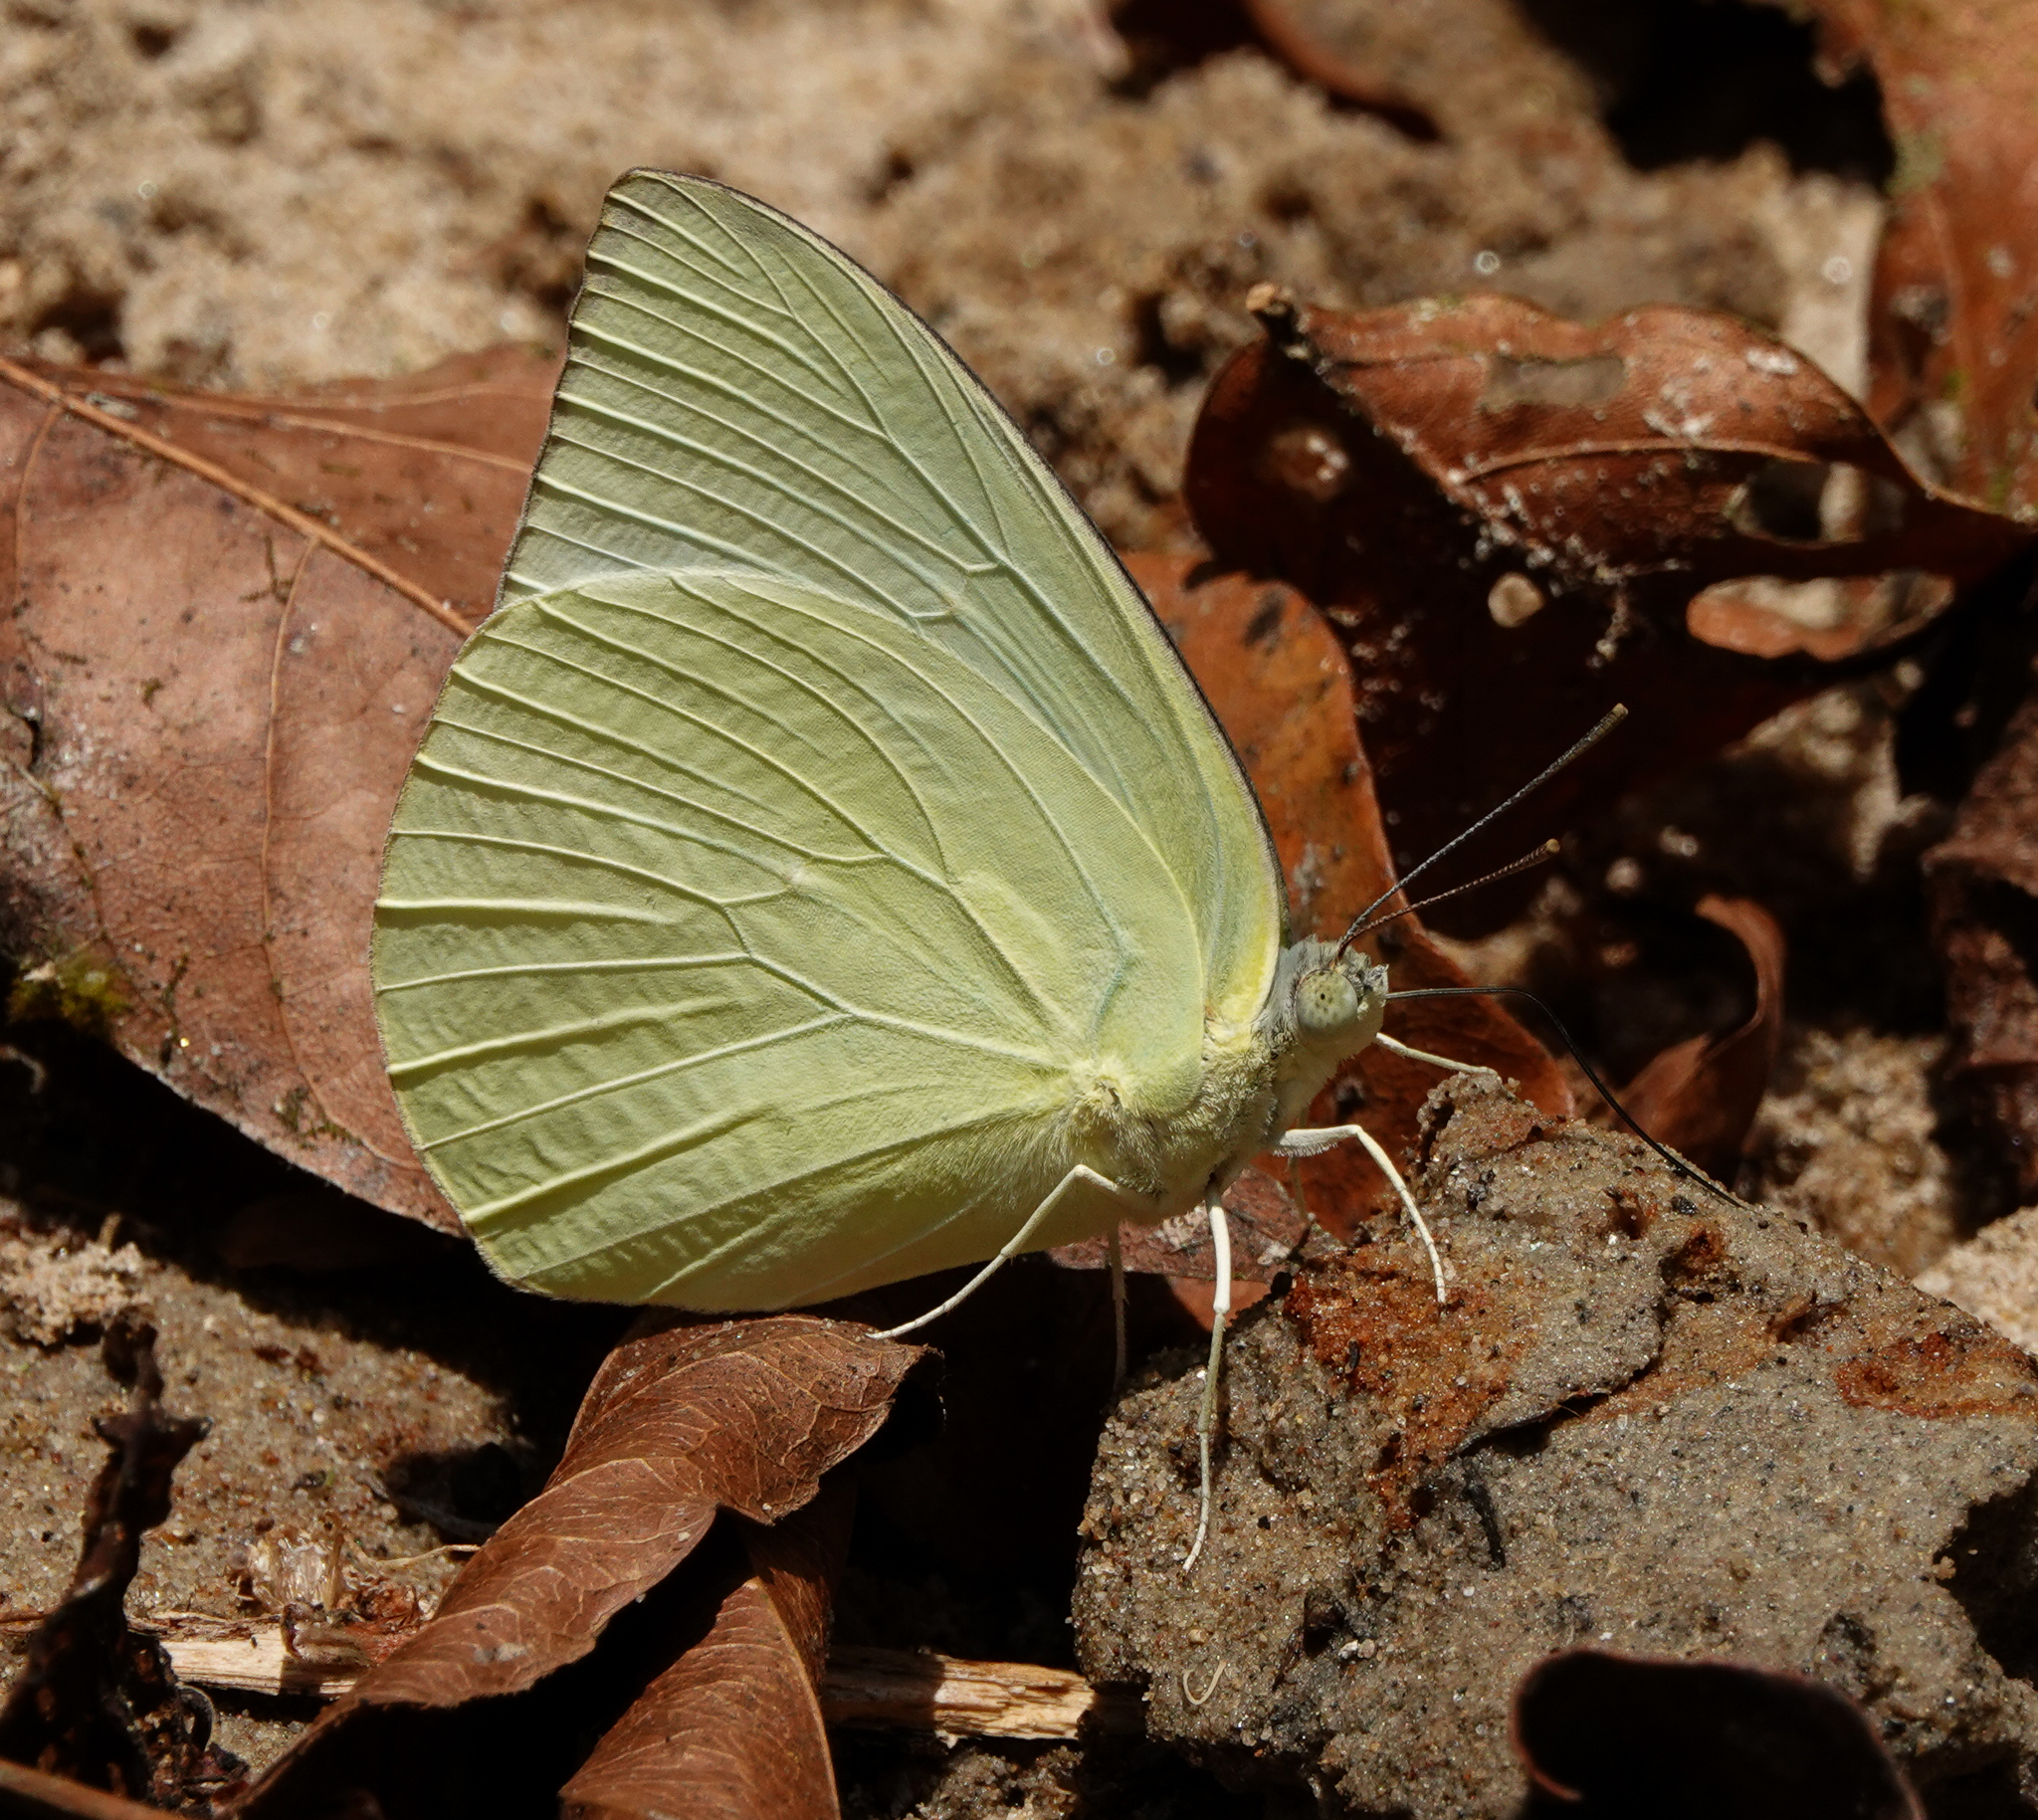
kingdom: Animalia
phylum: Arthropoda
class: Insecta
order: Lepidoptera
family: Pieridae
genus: Catopsilia
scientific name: Catopsilia pomona
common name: Common emigrant
